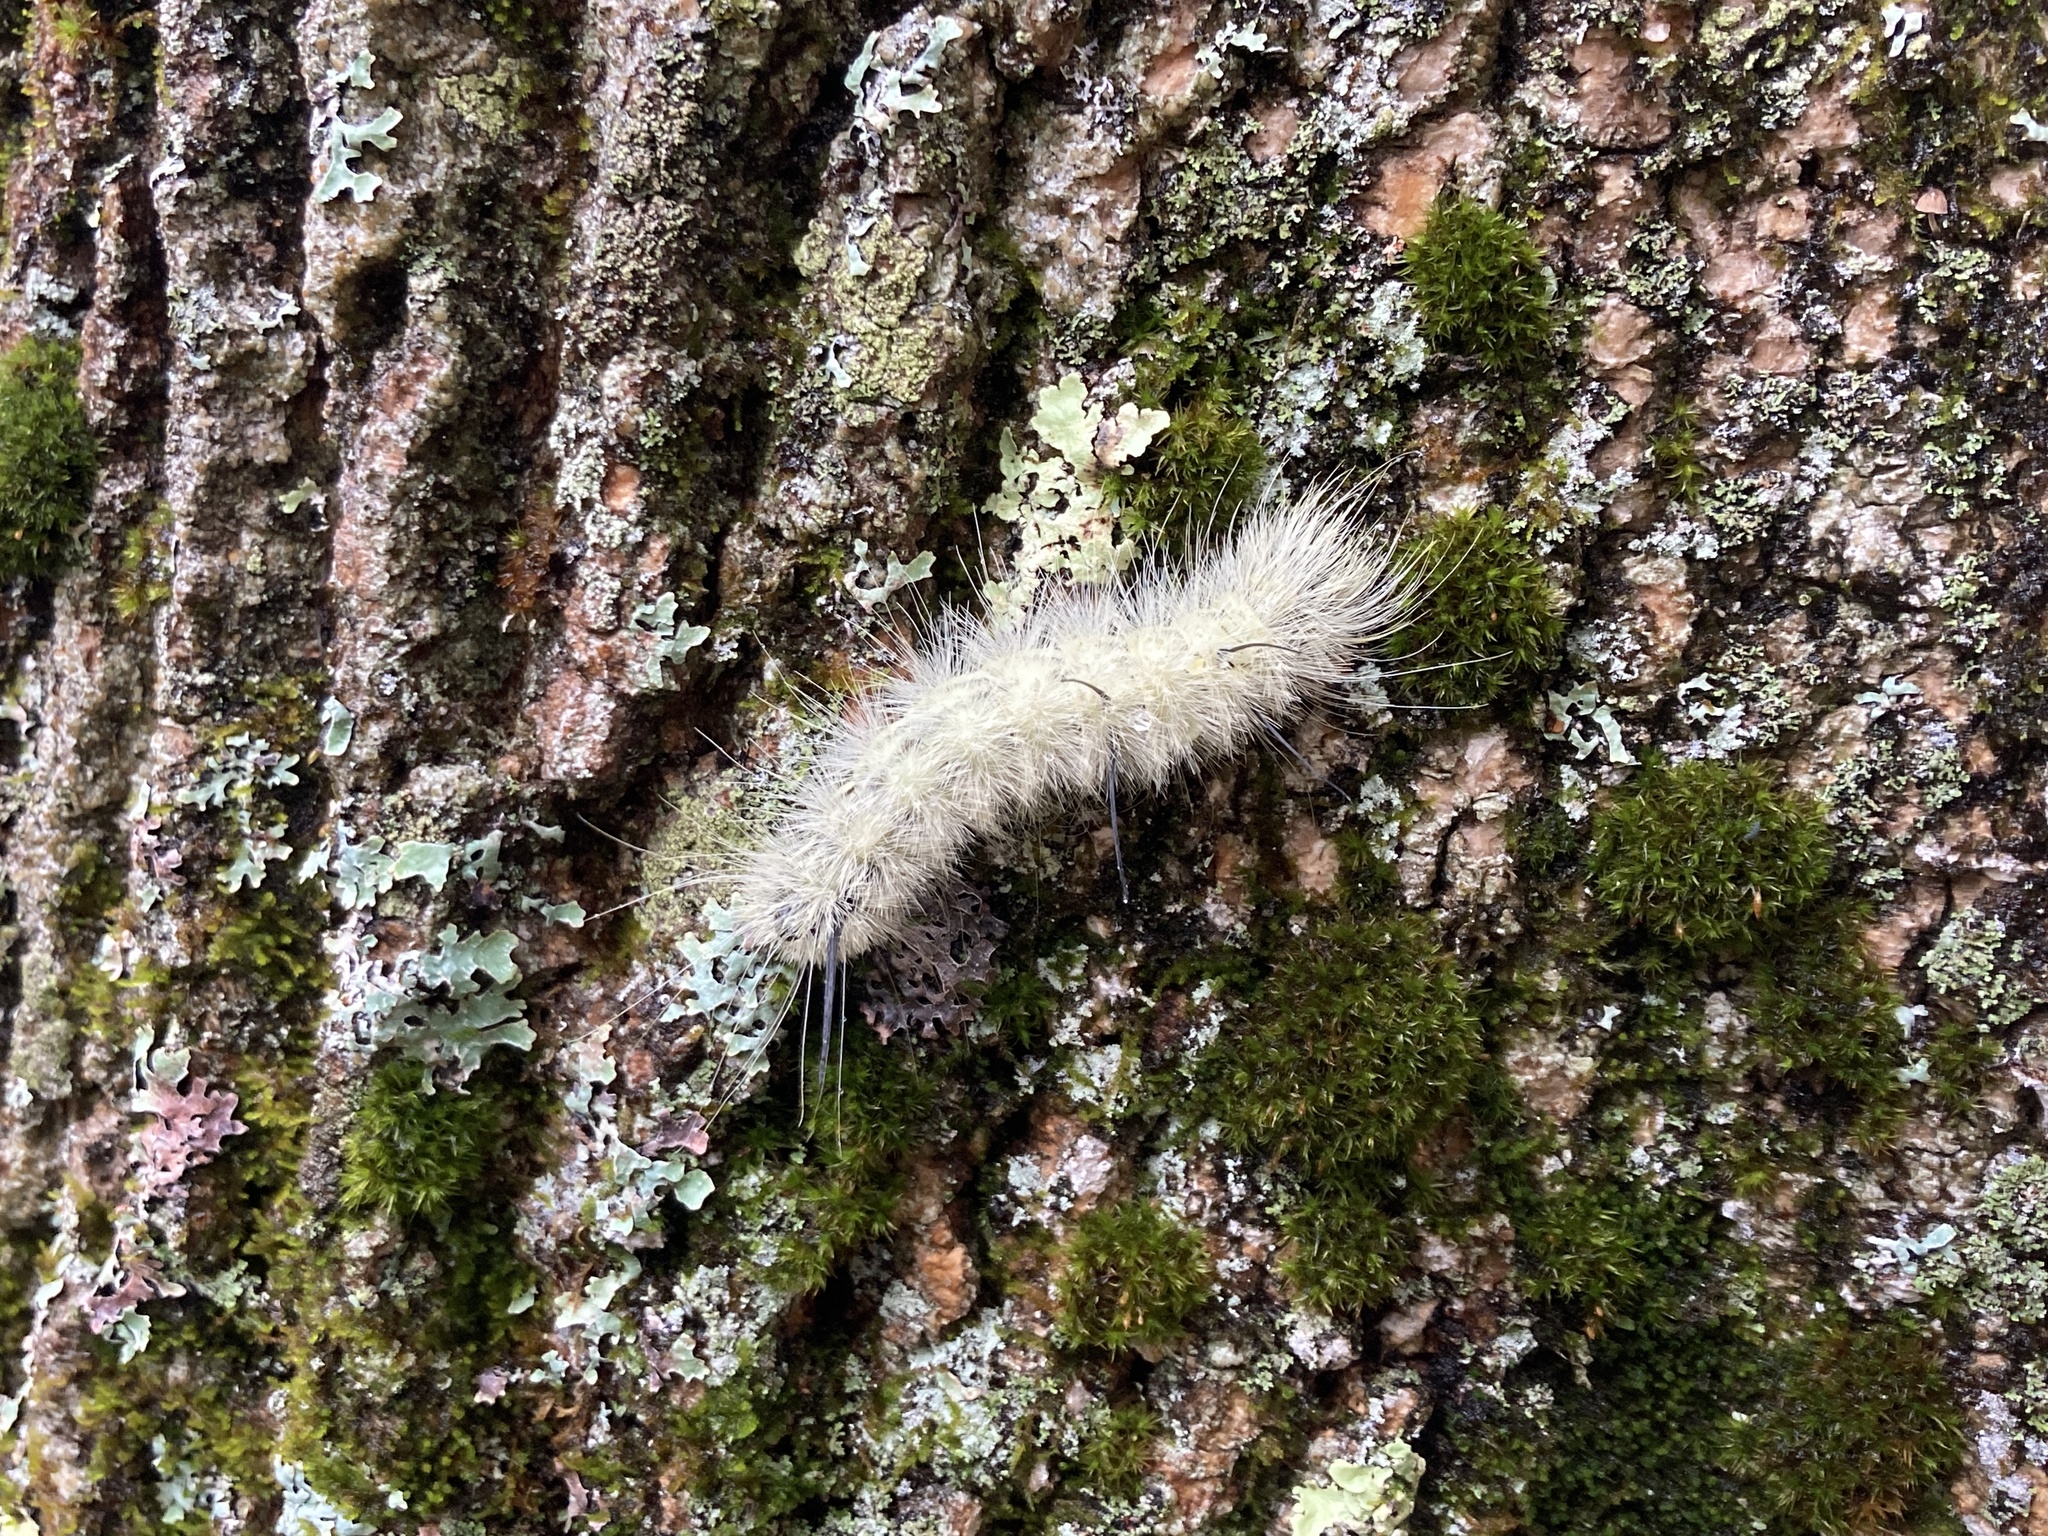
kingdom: Animalia
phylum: Arthropoda
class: Insecta
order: Lepidoptera
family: Noctuidae
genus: Acronicta
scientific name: Acronicta americana
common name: American dagger
